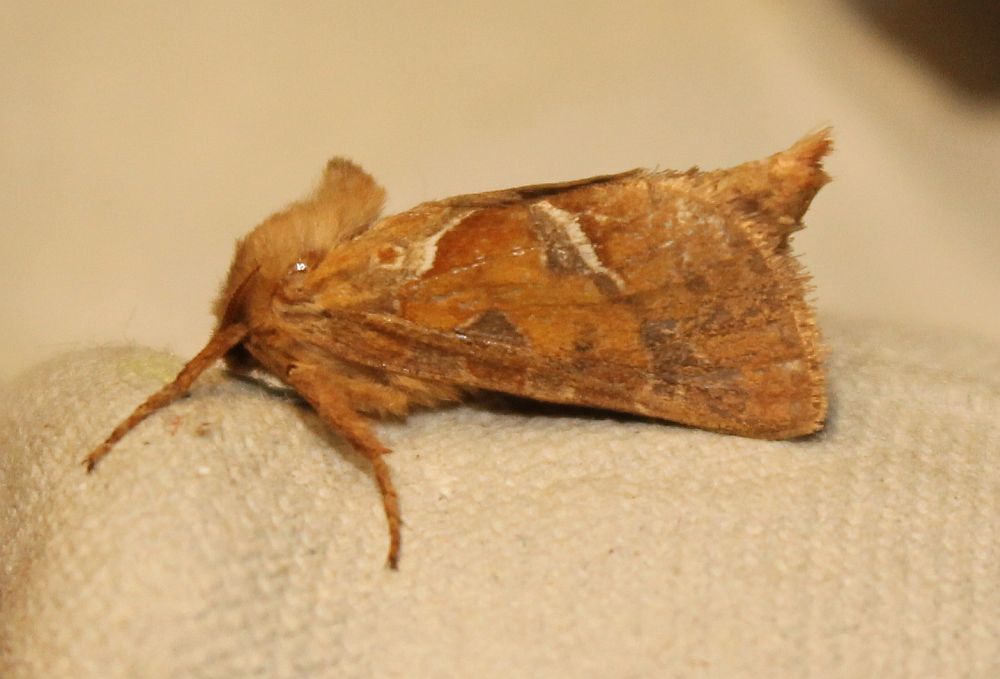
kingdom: Animalia
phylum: Arthropoda
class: Insecta
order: Lepidoptera
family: Hepialidae
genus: Triodia
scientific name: Triodia sylvina
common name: Orange swift
